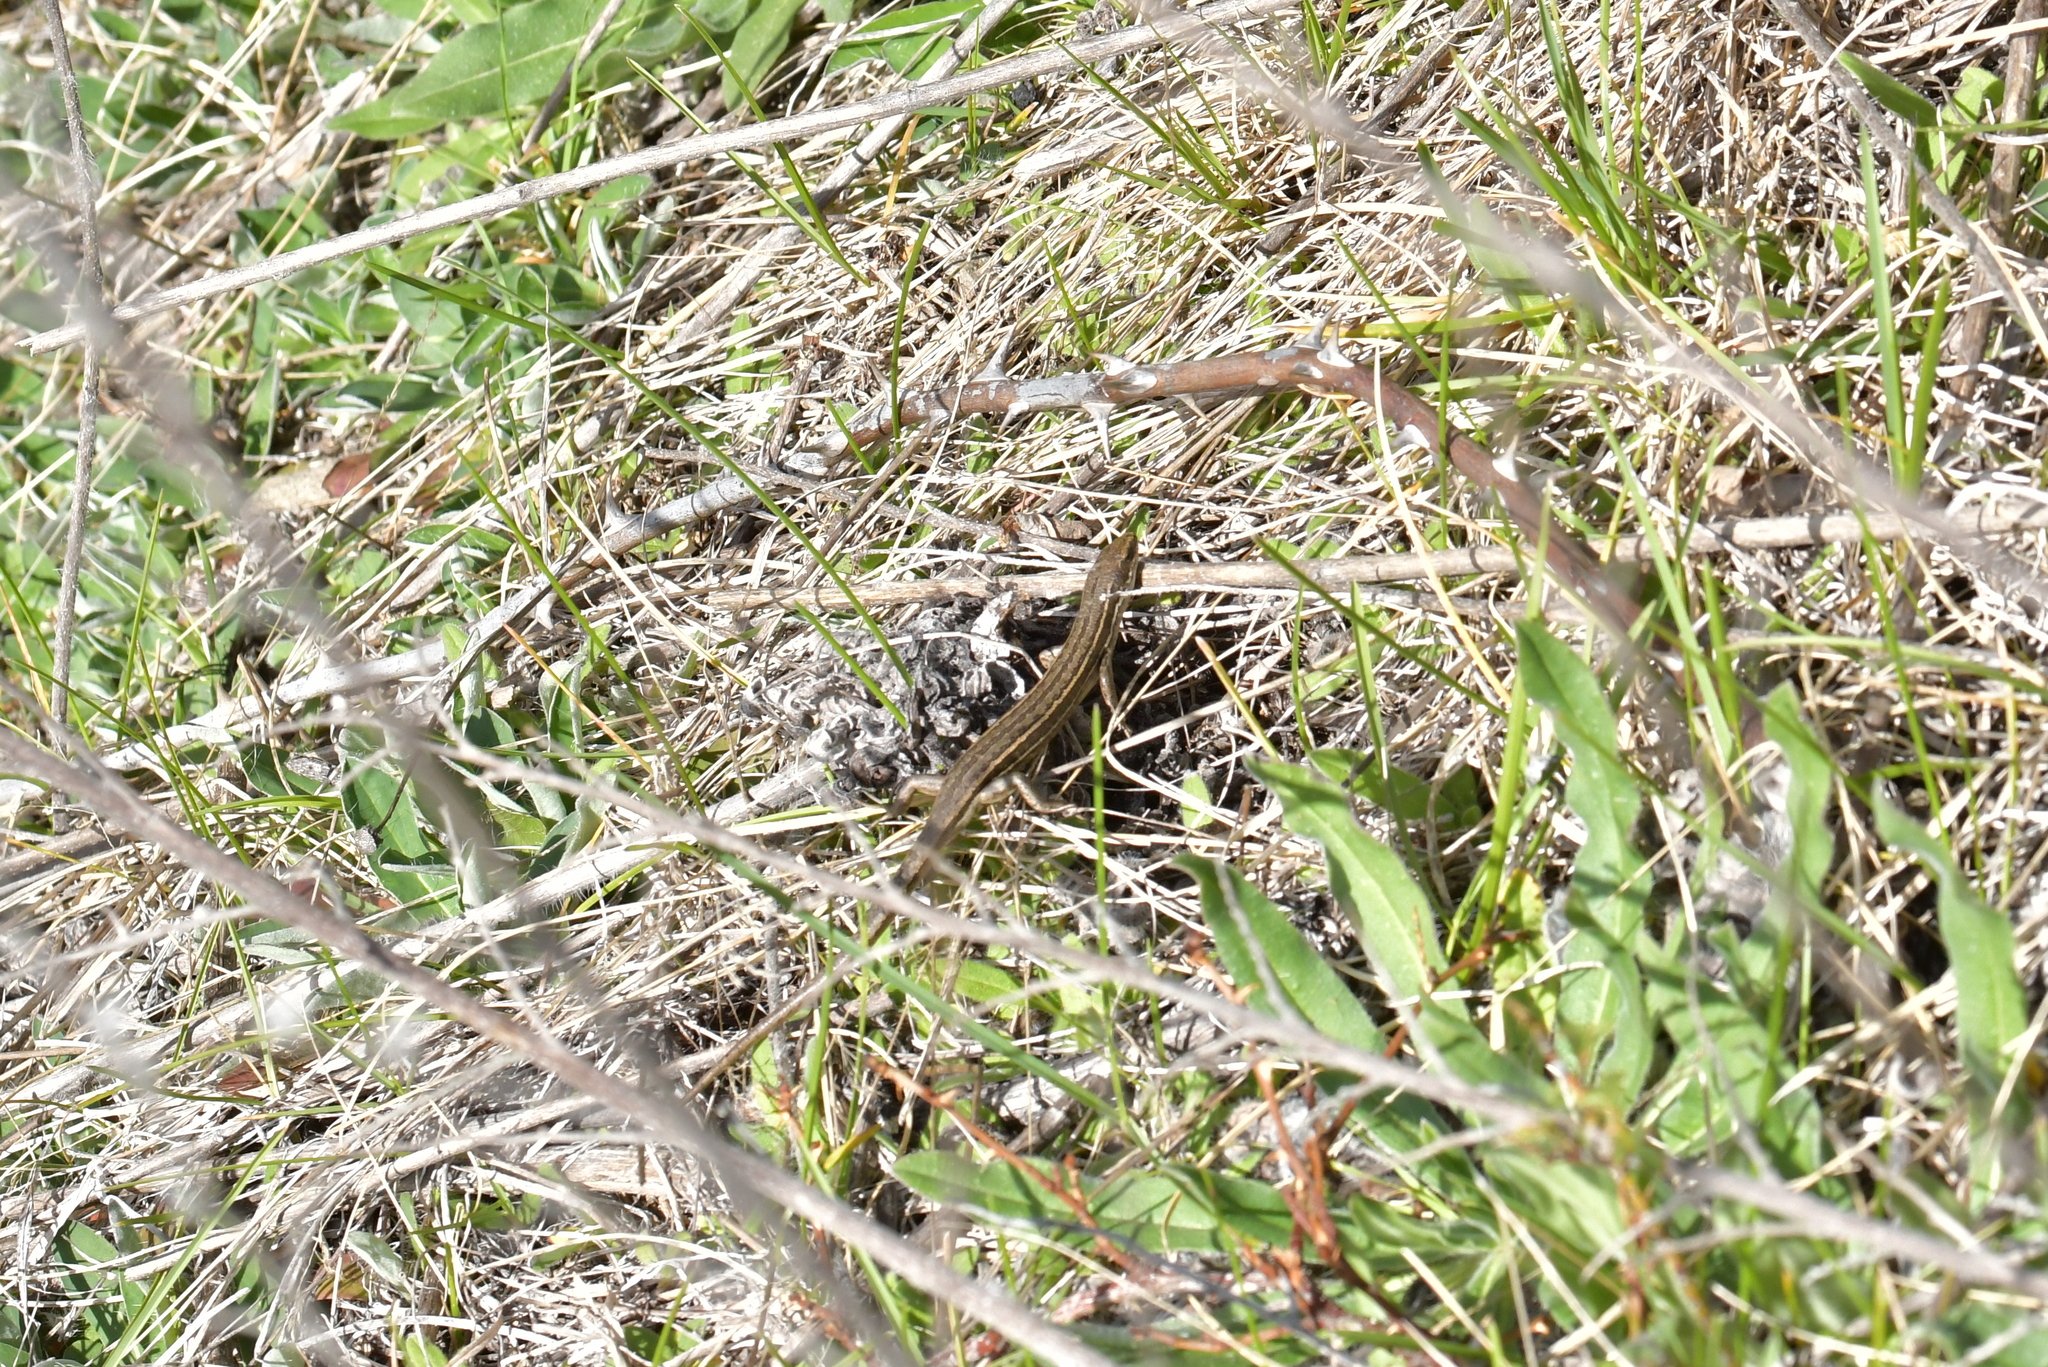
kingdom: Animalia
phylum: Chordata
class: Squamata
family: Scincidae
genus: Oligosoma
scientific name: Oligosoma maccanni
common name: Mccann’s skink
